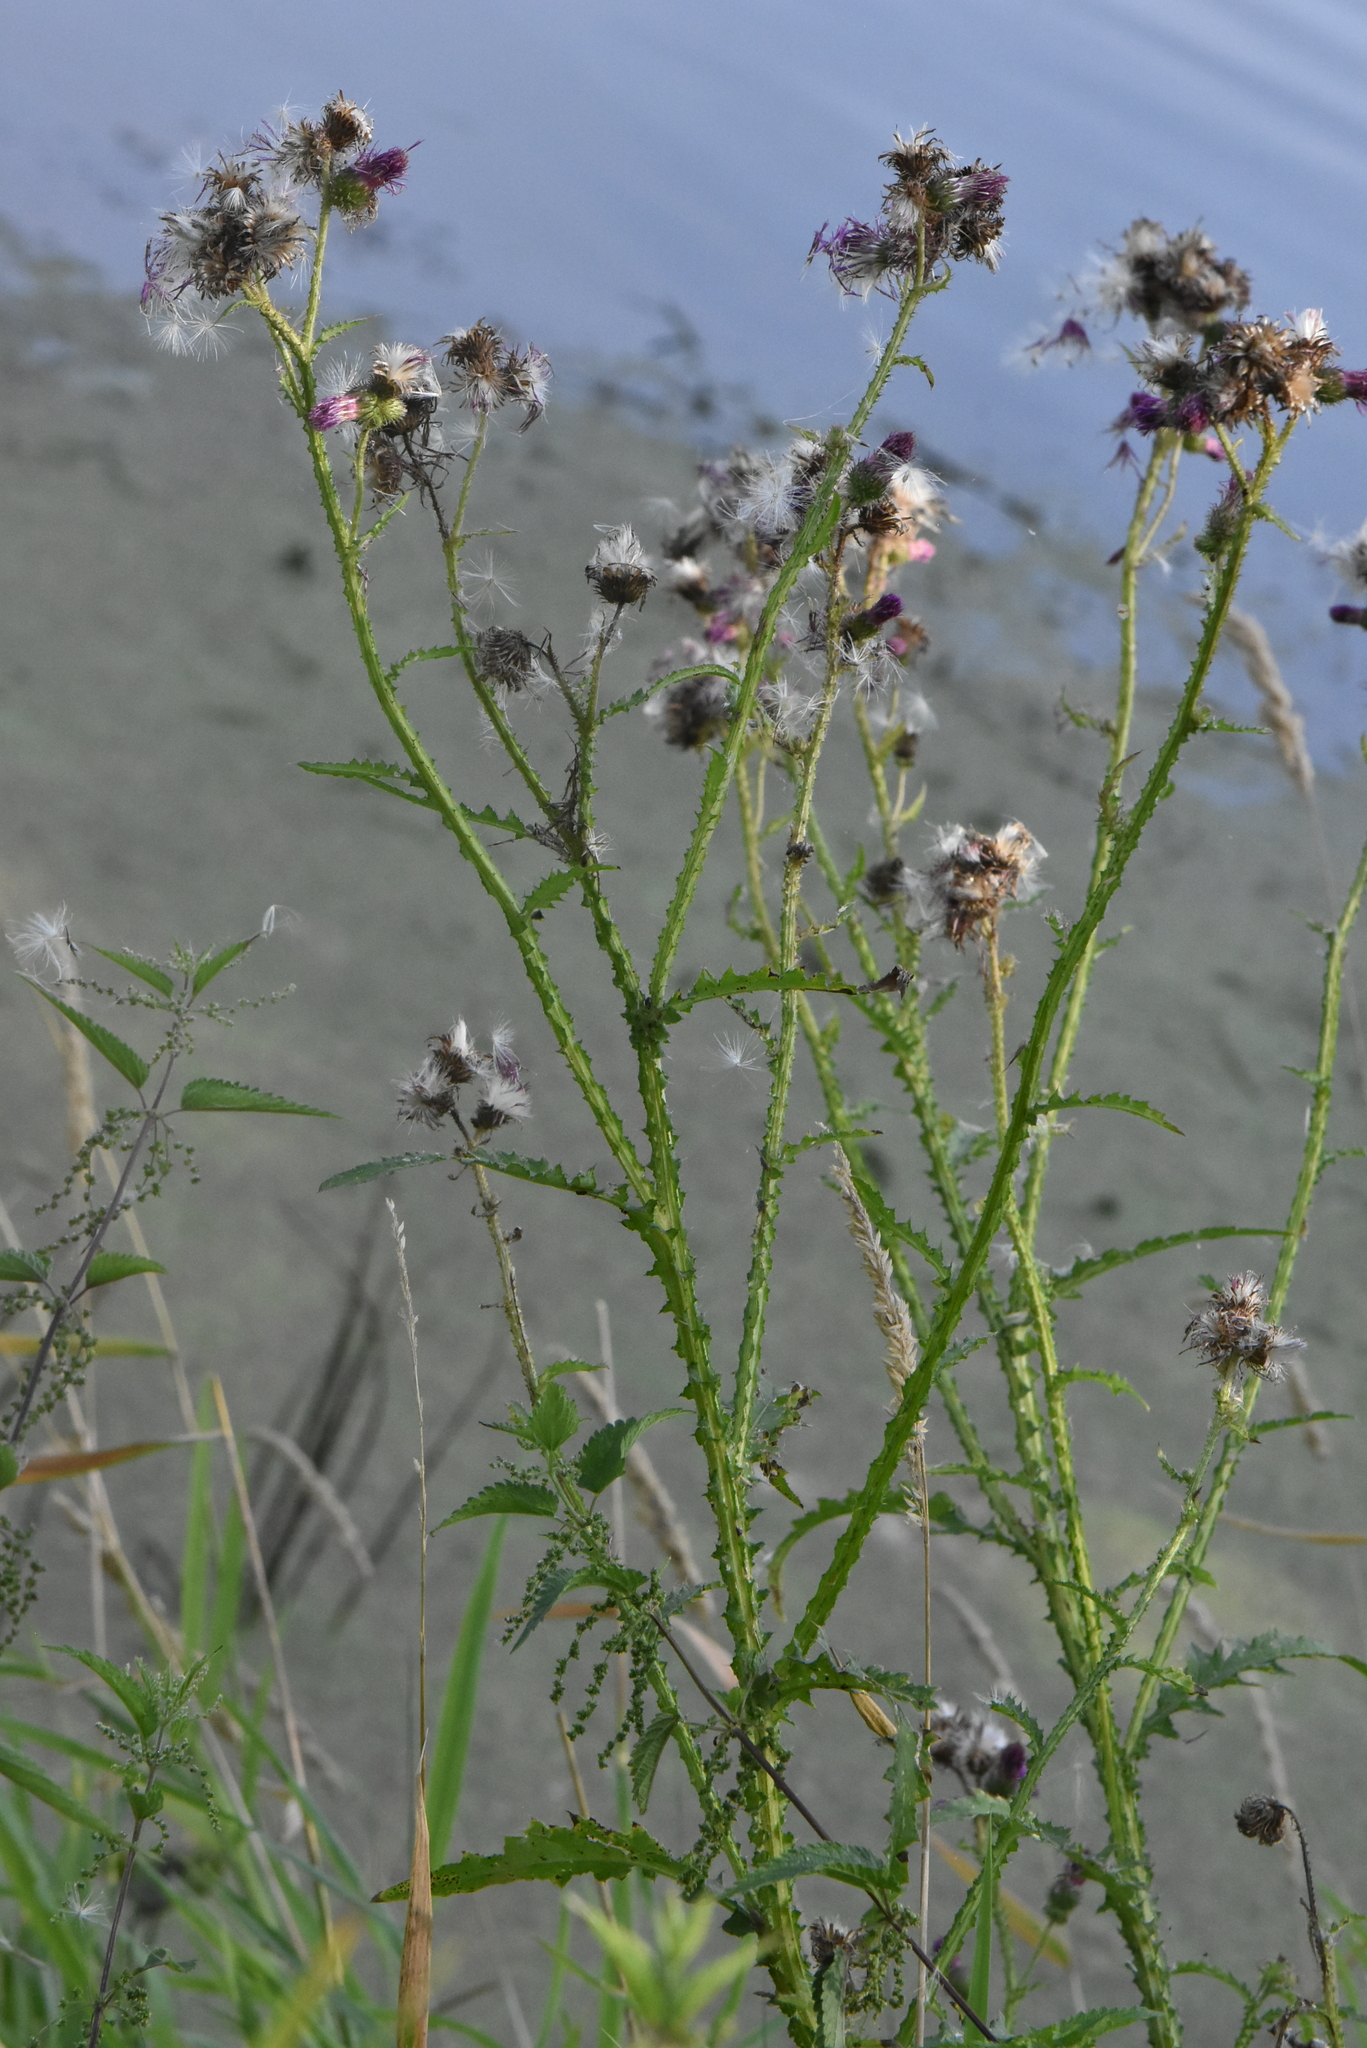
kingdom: Plantae
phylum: Tracheophyta
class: Magnoliopsida
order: Asterales
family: Asteraceae
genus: Cirsium
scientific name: Cirsium palustre
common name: Marsh thistle
